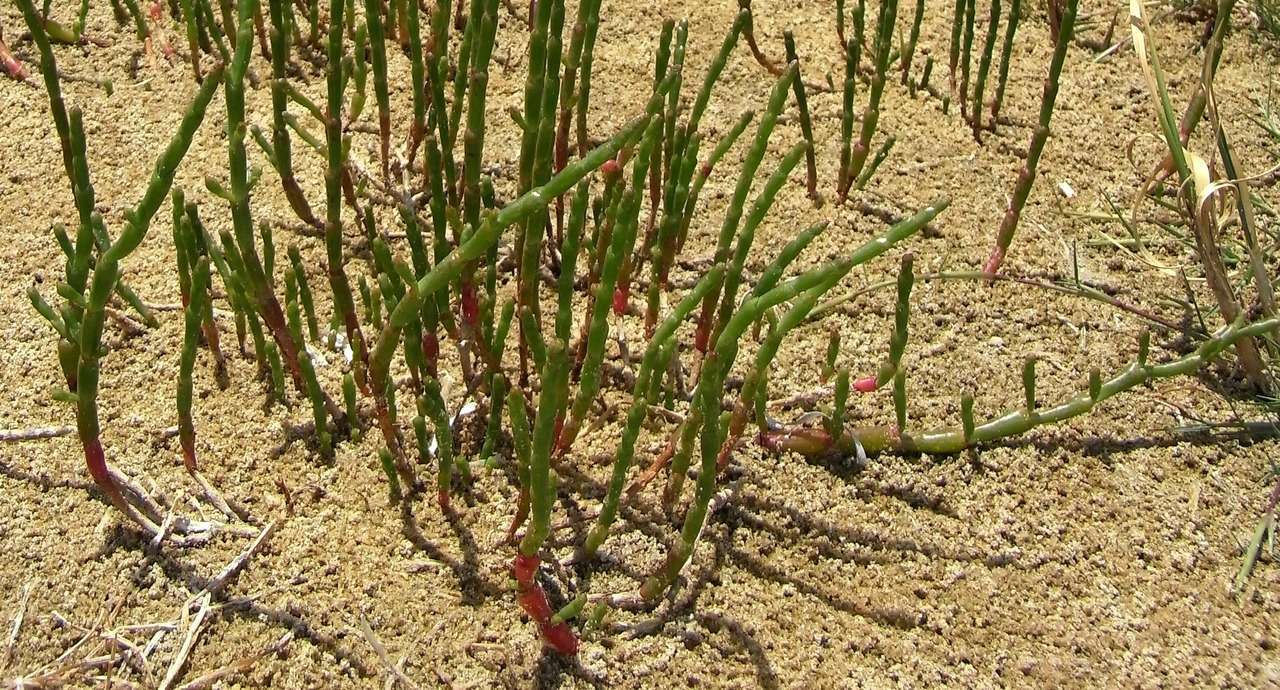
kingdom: Plantae
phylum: Tracheophyta
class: Magnoliopsida
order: Caryophyllales
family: Amaranthaceae
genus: Salicornia
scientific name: Salicornia quinqueflora
